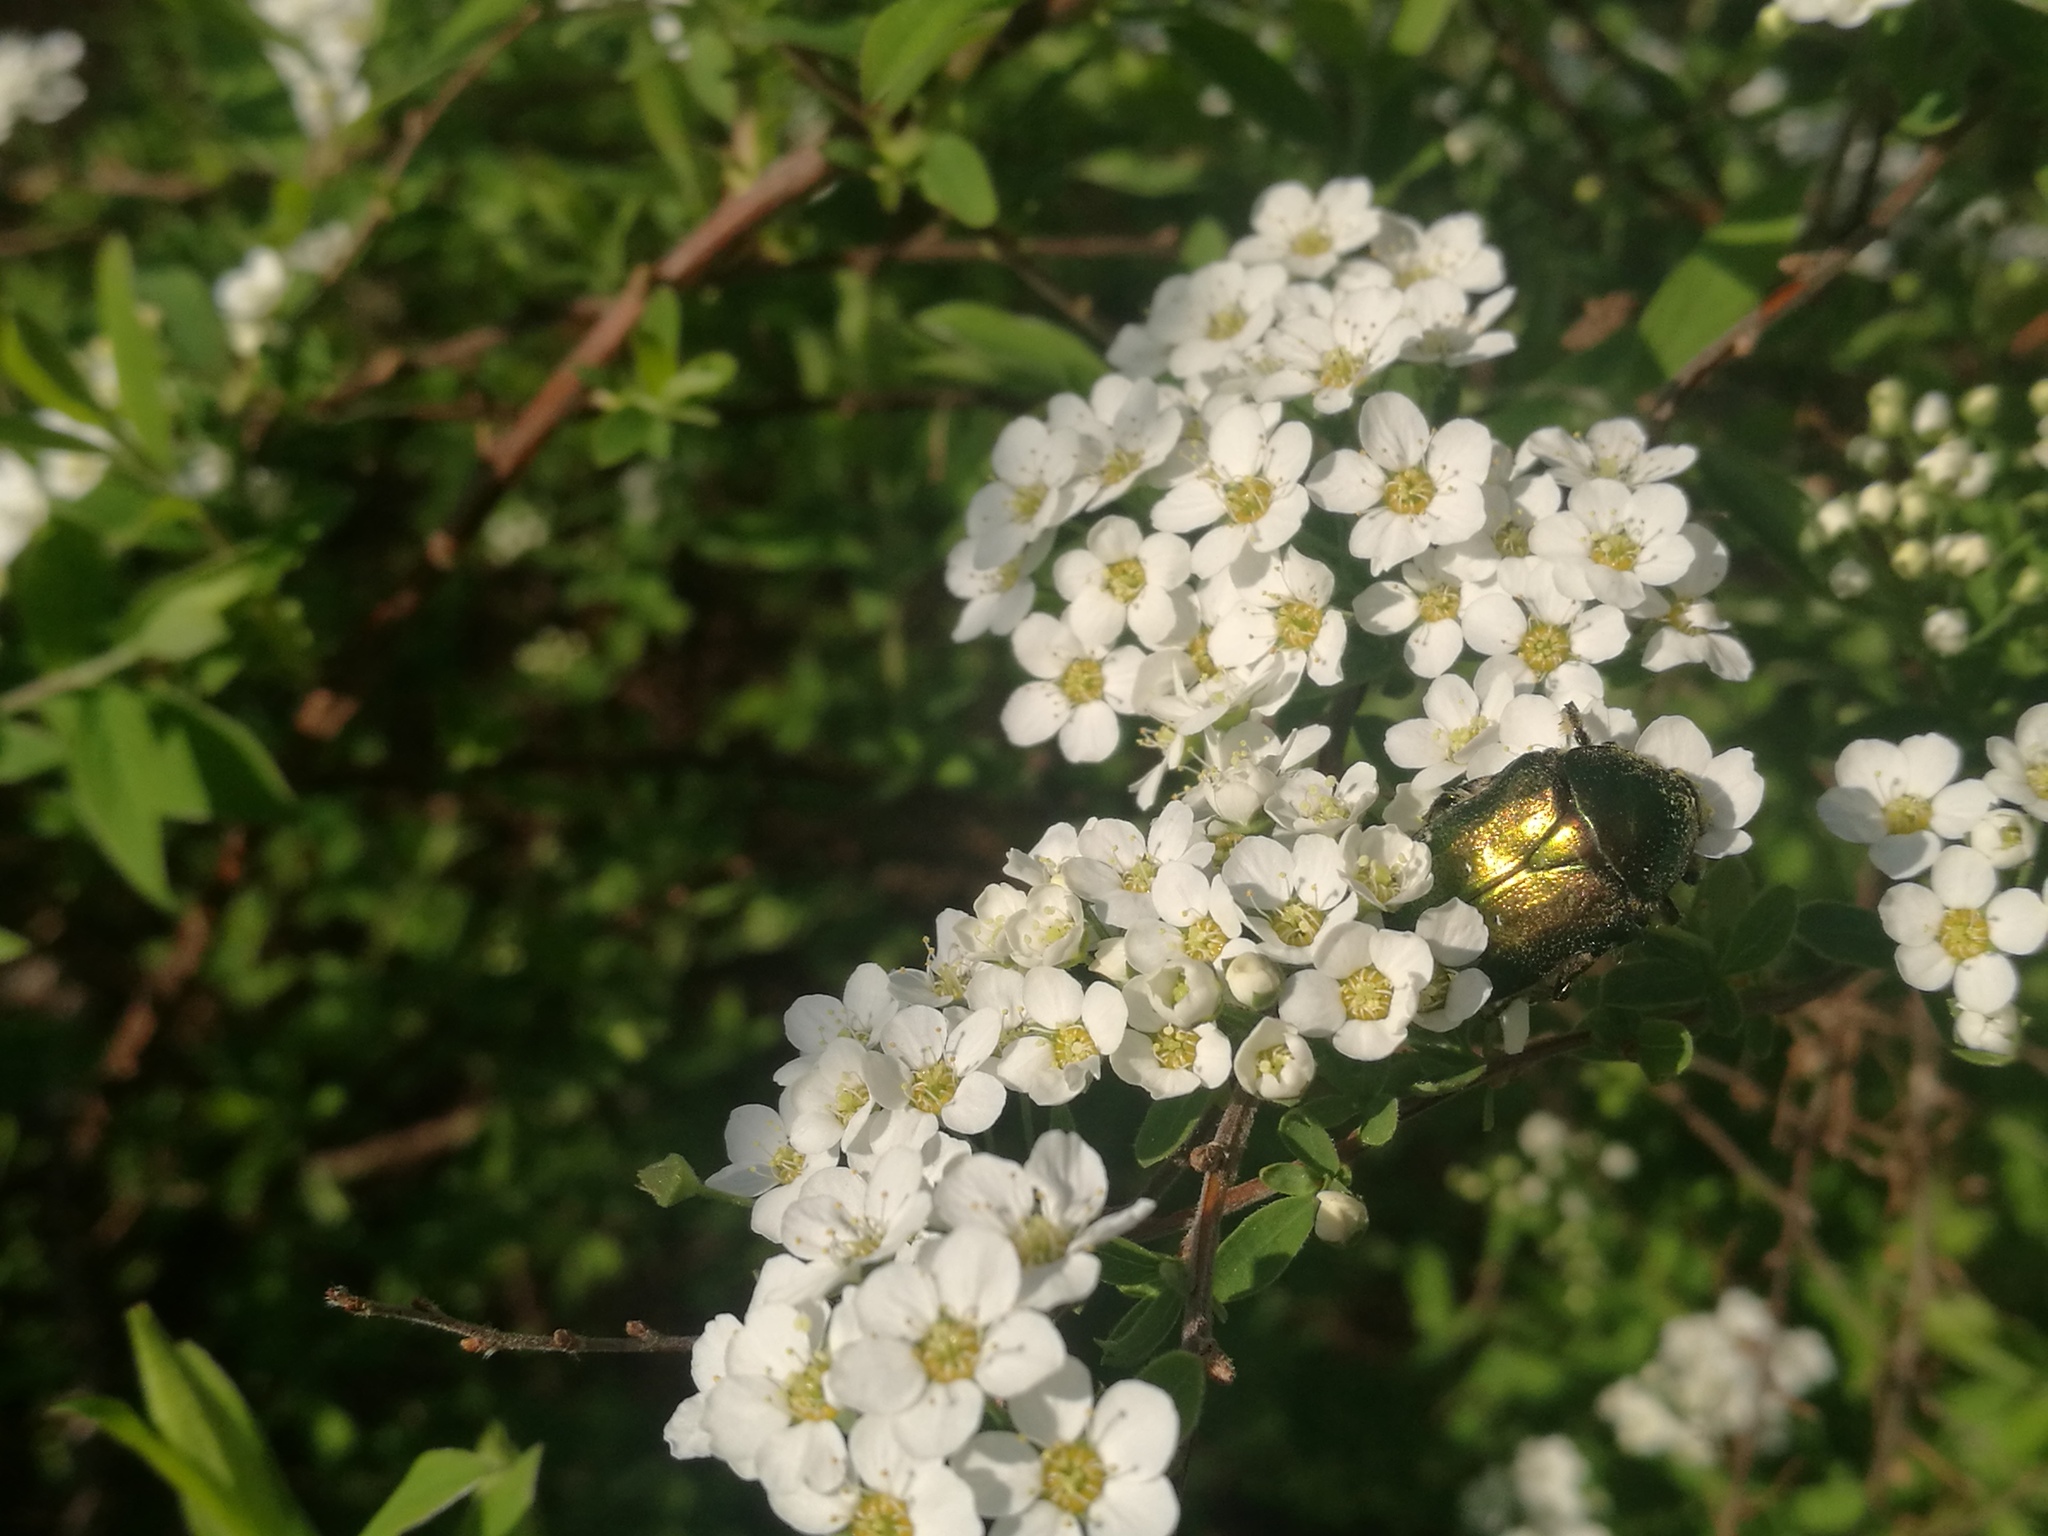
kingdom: Animalia
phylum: Arthropoda
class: Insecta
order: Coleoptera
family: Scarabaeidae
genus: Cetonia
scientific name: Cetonia aurata
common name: Rose chafer
